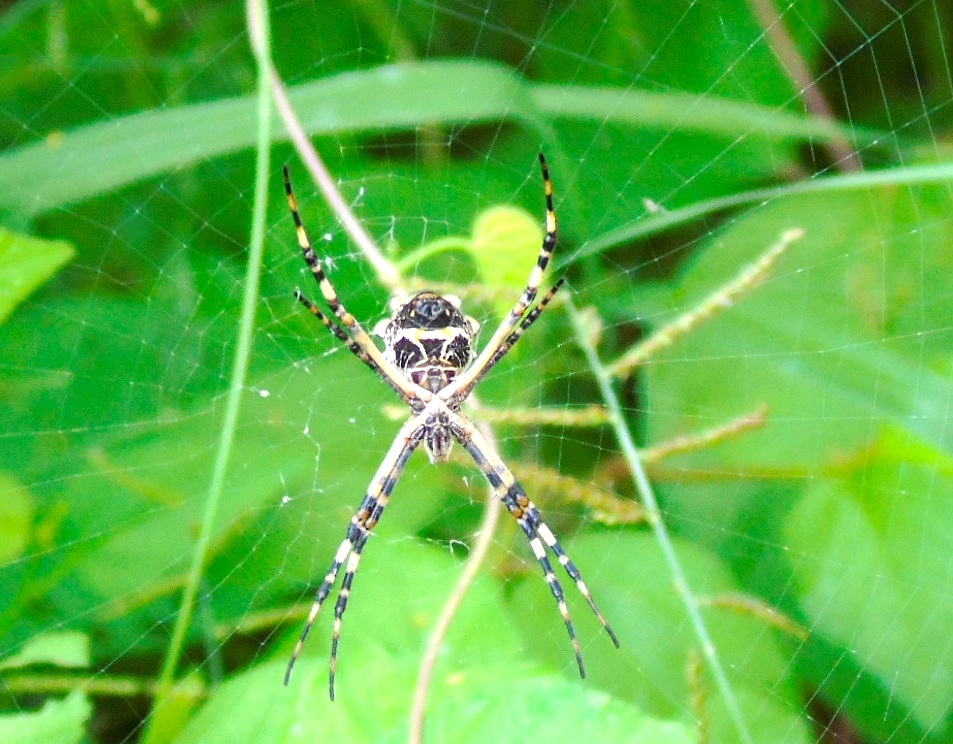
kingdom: Animalia
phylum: Arthropoda
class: Arachnida
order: Araneae
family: Araneidae
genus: Argiope
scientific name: Argiope argentata
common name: Orb weavers
